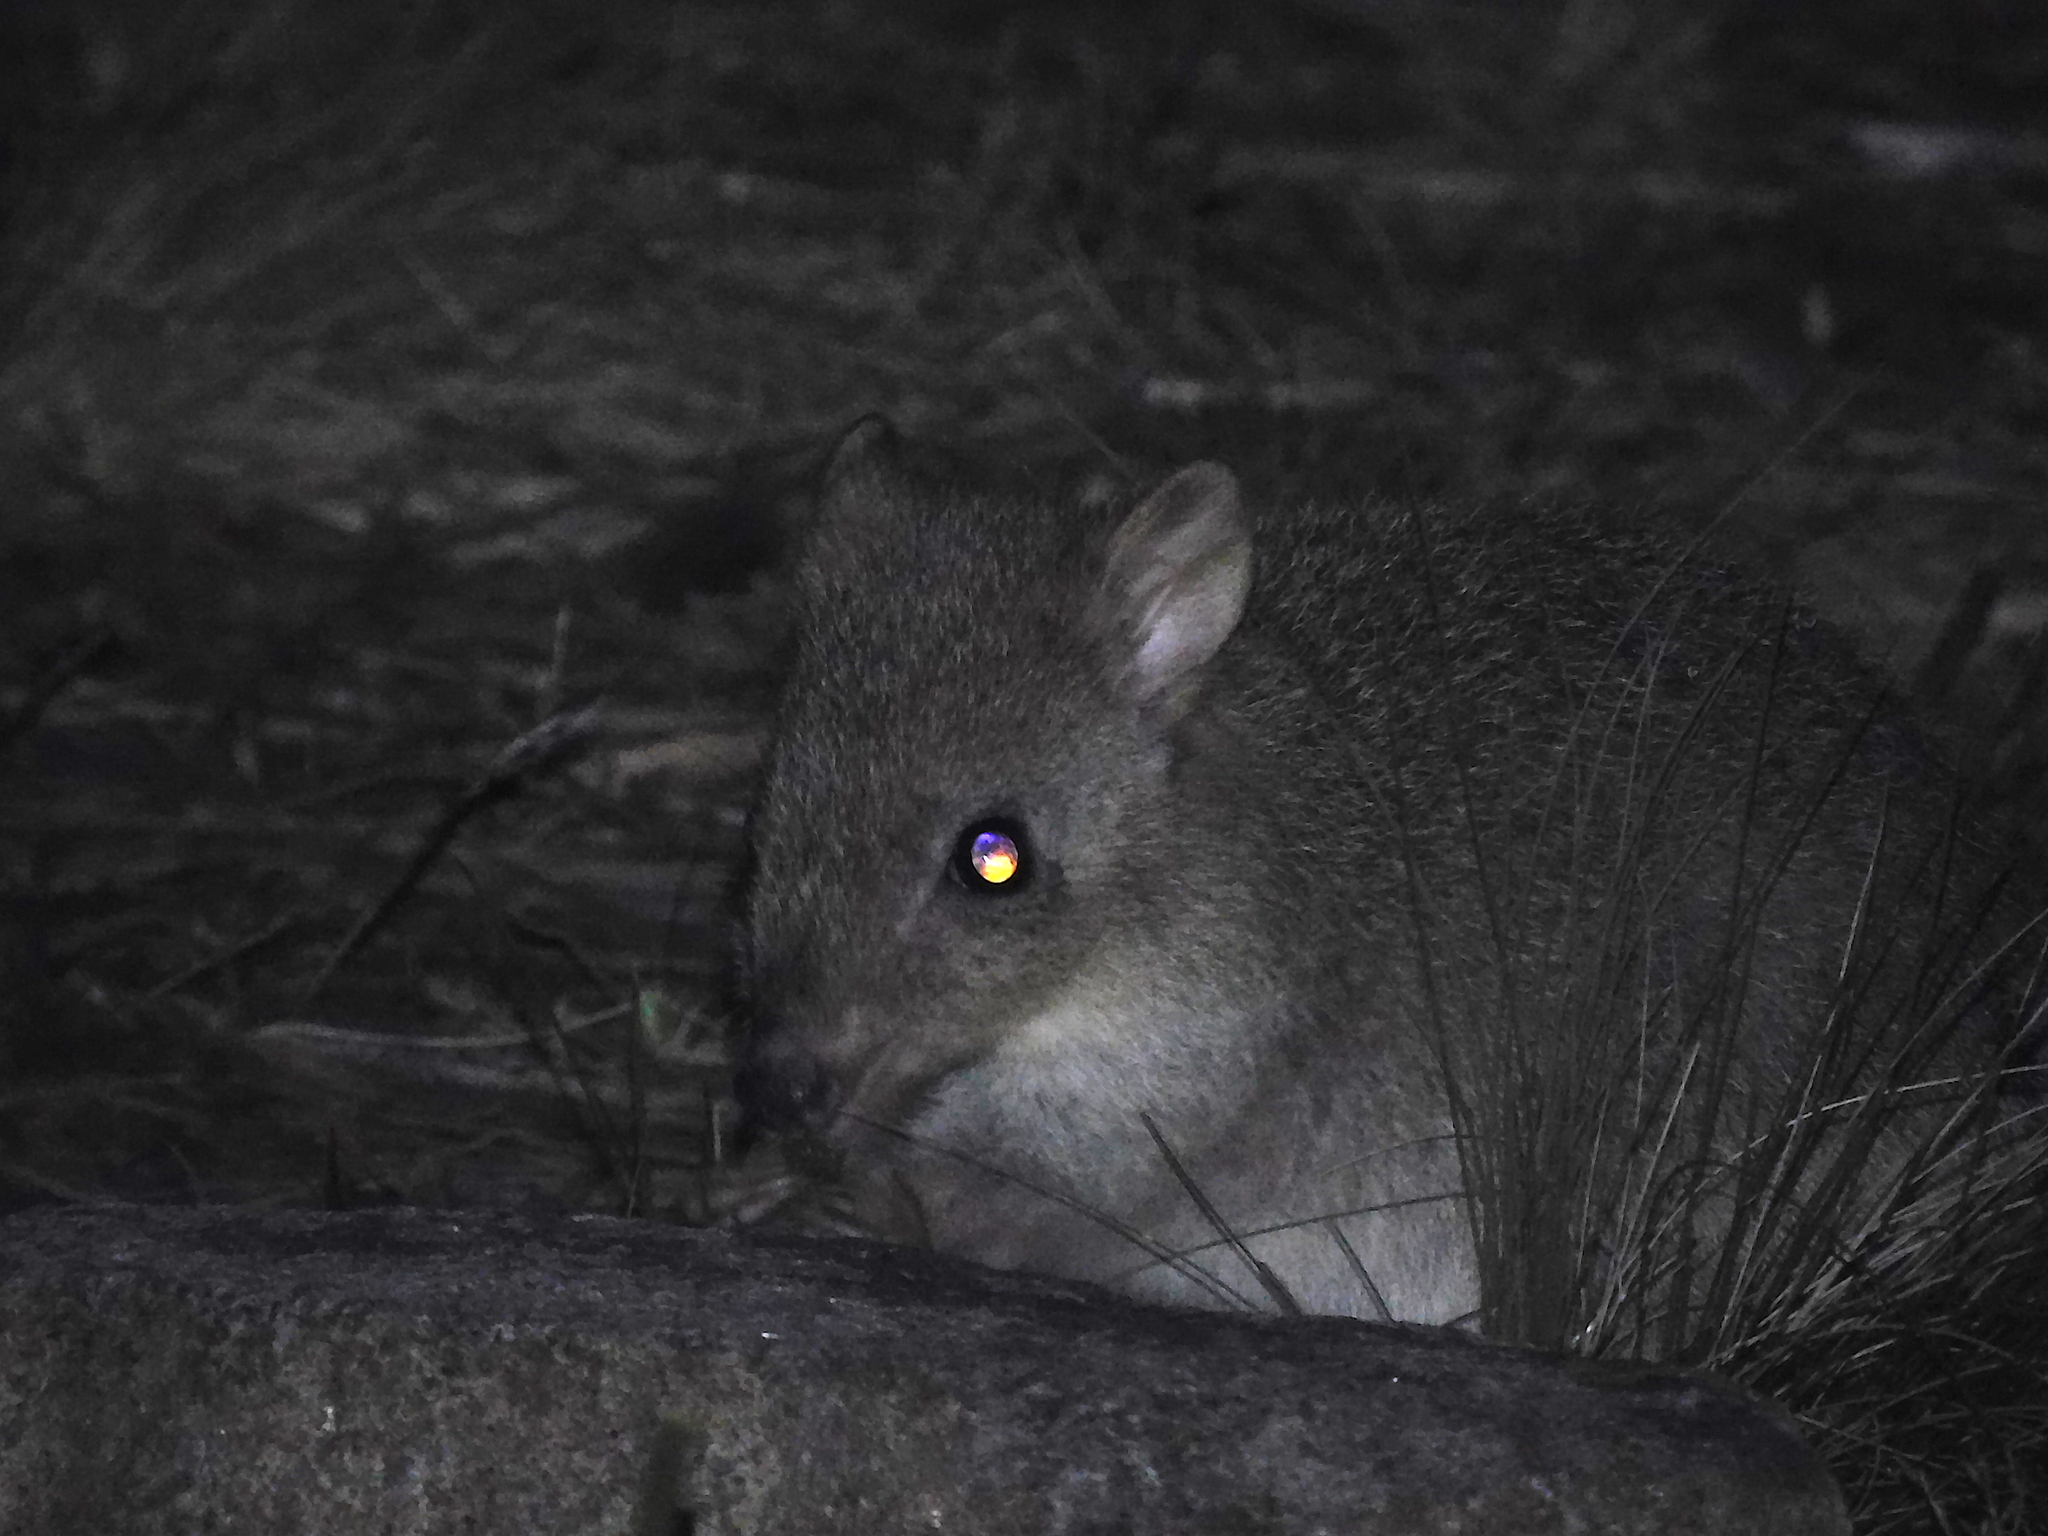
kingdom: Animalia
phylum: Chordata
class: Mammalia
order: Diprotodontia
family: Potoroidae
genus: Bettongia
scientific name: Bettongia gaimardi
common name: Eastern bettong
